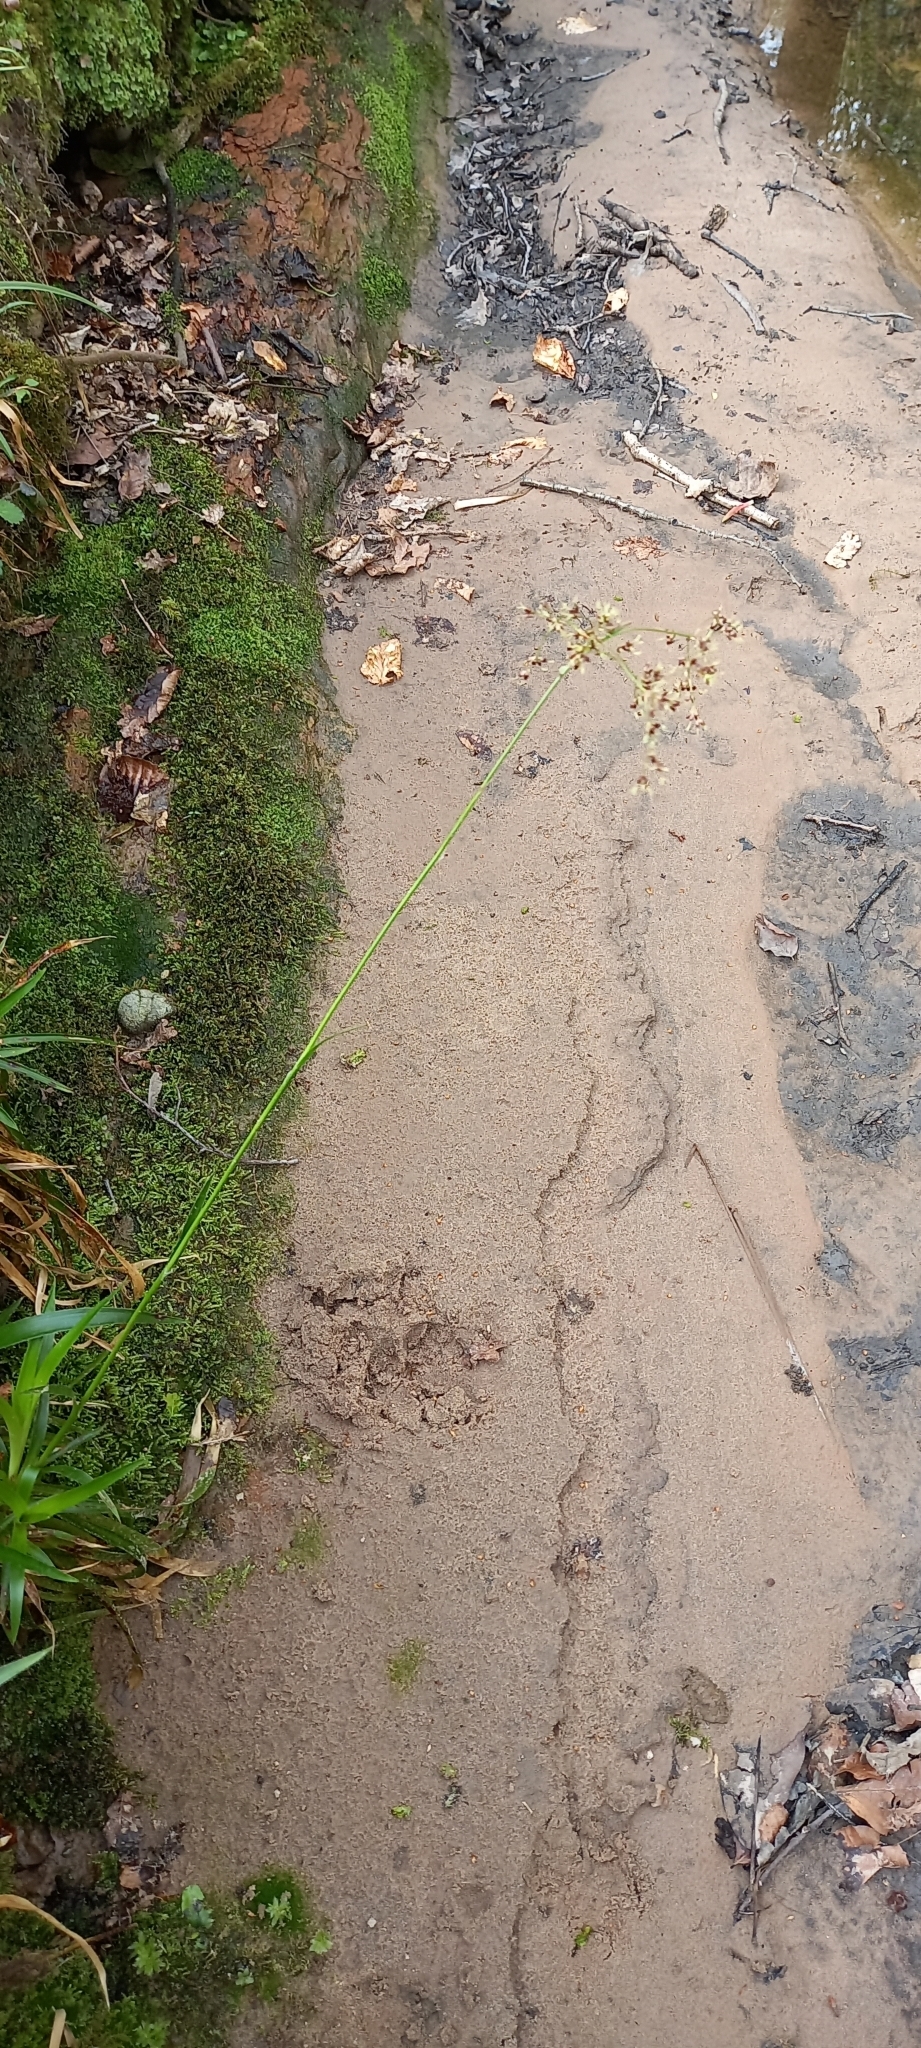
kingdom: Plantae
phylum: Tracheophyta
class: Liliopsida
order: Poales
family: Juncaceae
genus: Luzula
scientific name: Luzula sylvatica
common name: Great wood-rush
